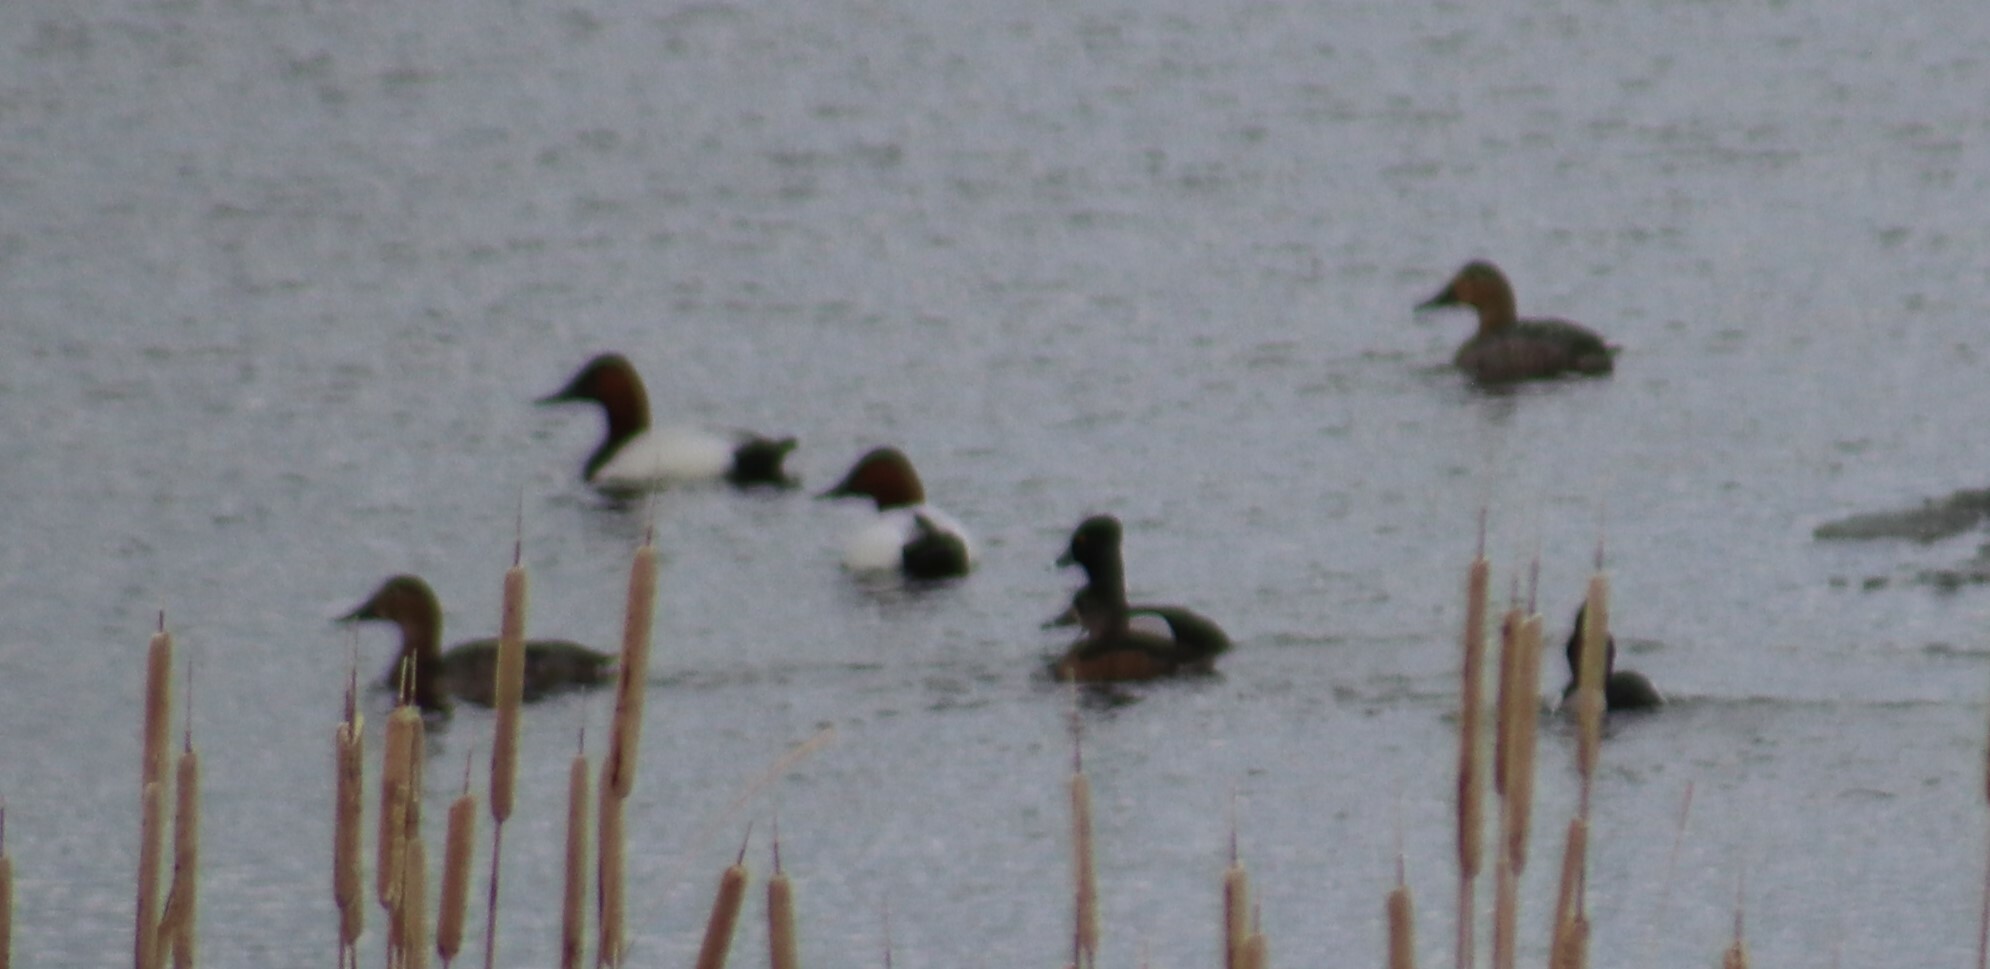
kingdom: Animalia
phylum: Chordata
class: Aves
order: Anseriformes
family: Anatidae
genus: Aythya
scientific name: Aythya valisineria
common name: Canvasback
